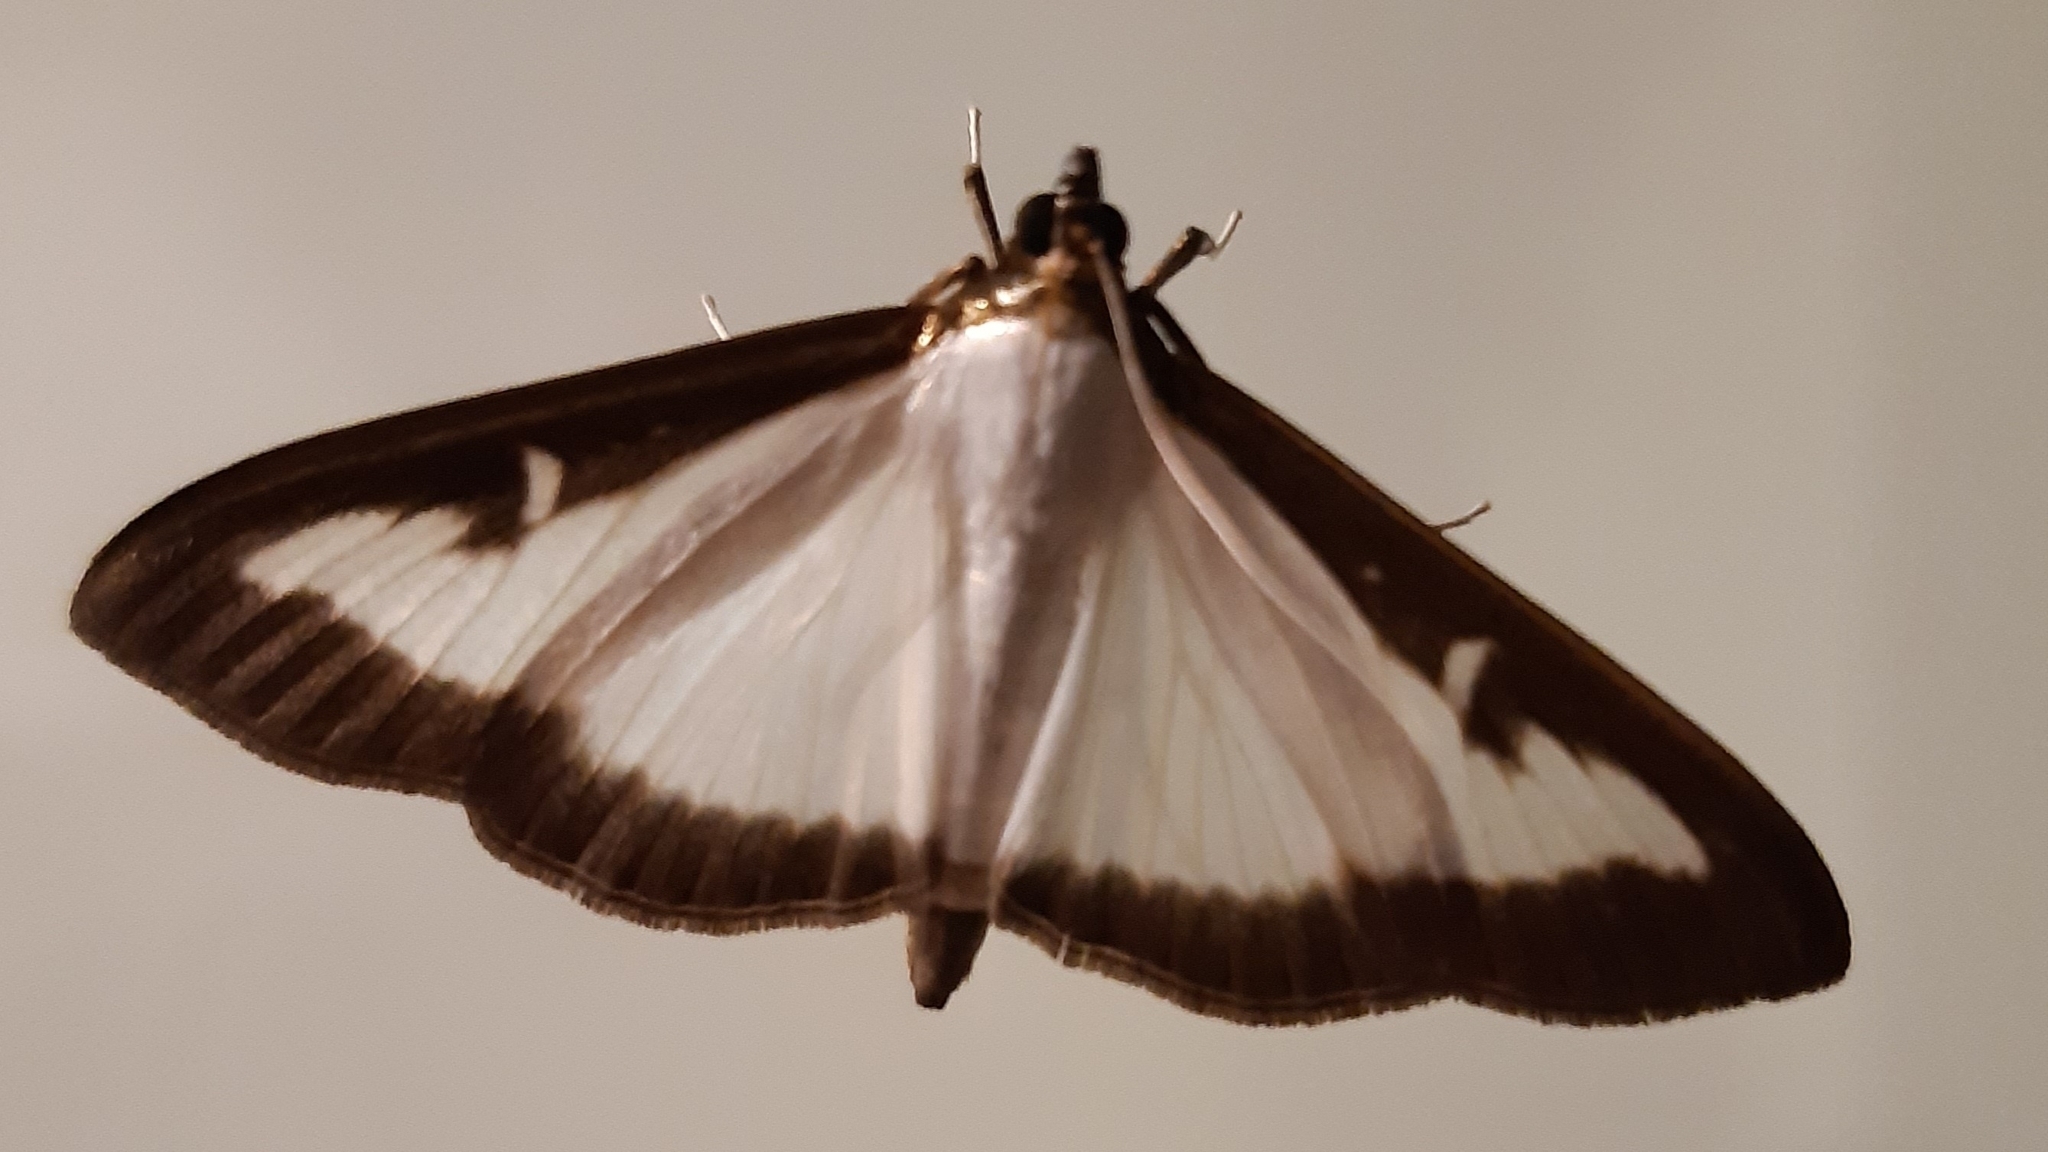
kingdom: Animalia
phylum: Arthropoda
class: Insecta
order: Lepidoptera
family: Crambidae
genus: Cydalima
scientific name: Cydalima perspectalis
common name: Box tree moth
